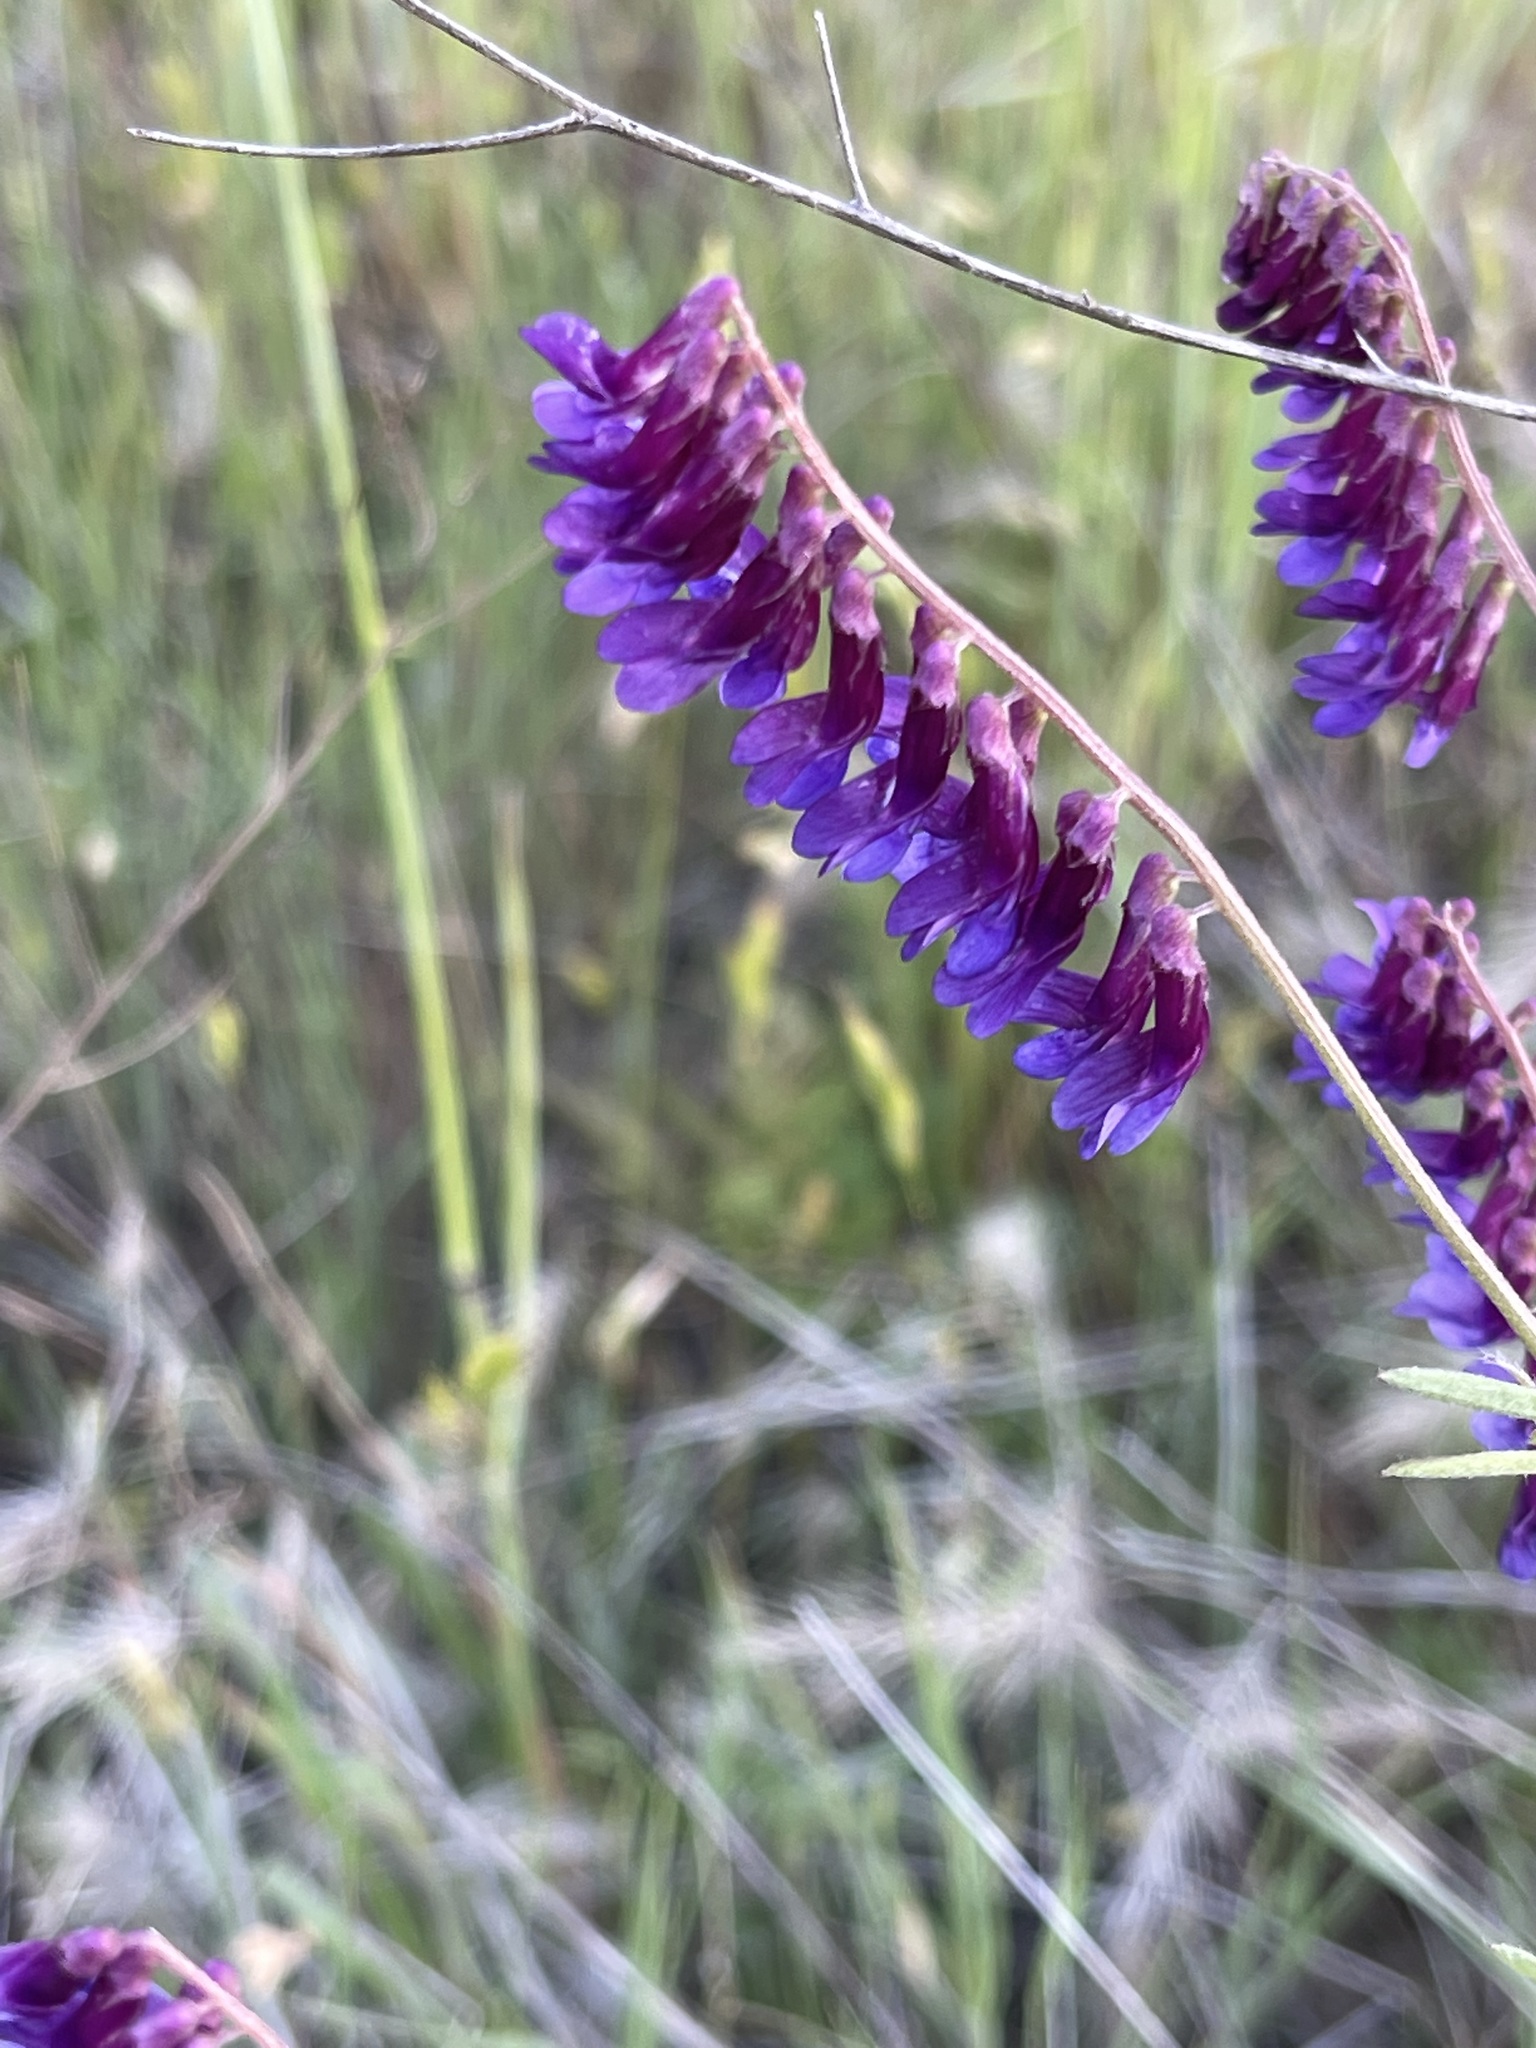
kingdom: Plantae
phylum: Tracheophyta
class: Magnoliopsida
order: Fabales
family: Fabaceae
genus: Vicia
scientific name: Vicia villosa
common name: Fodder vetch
